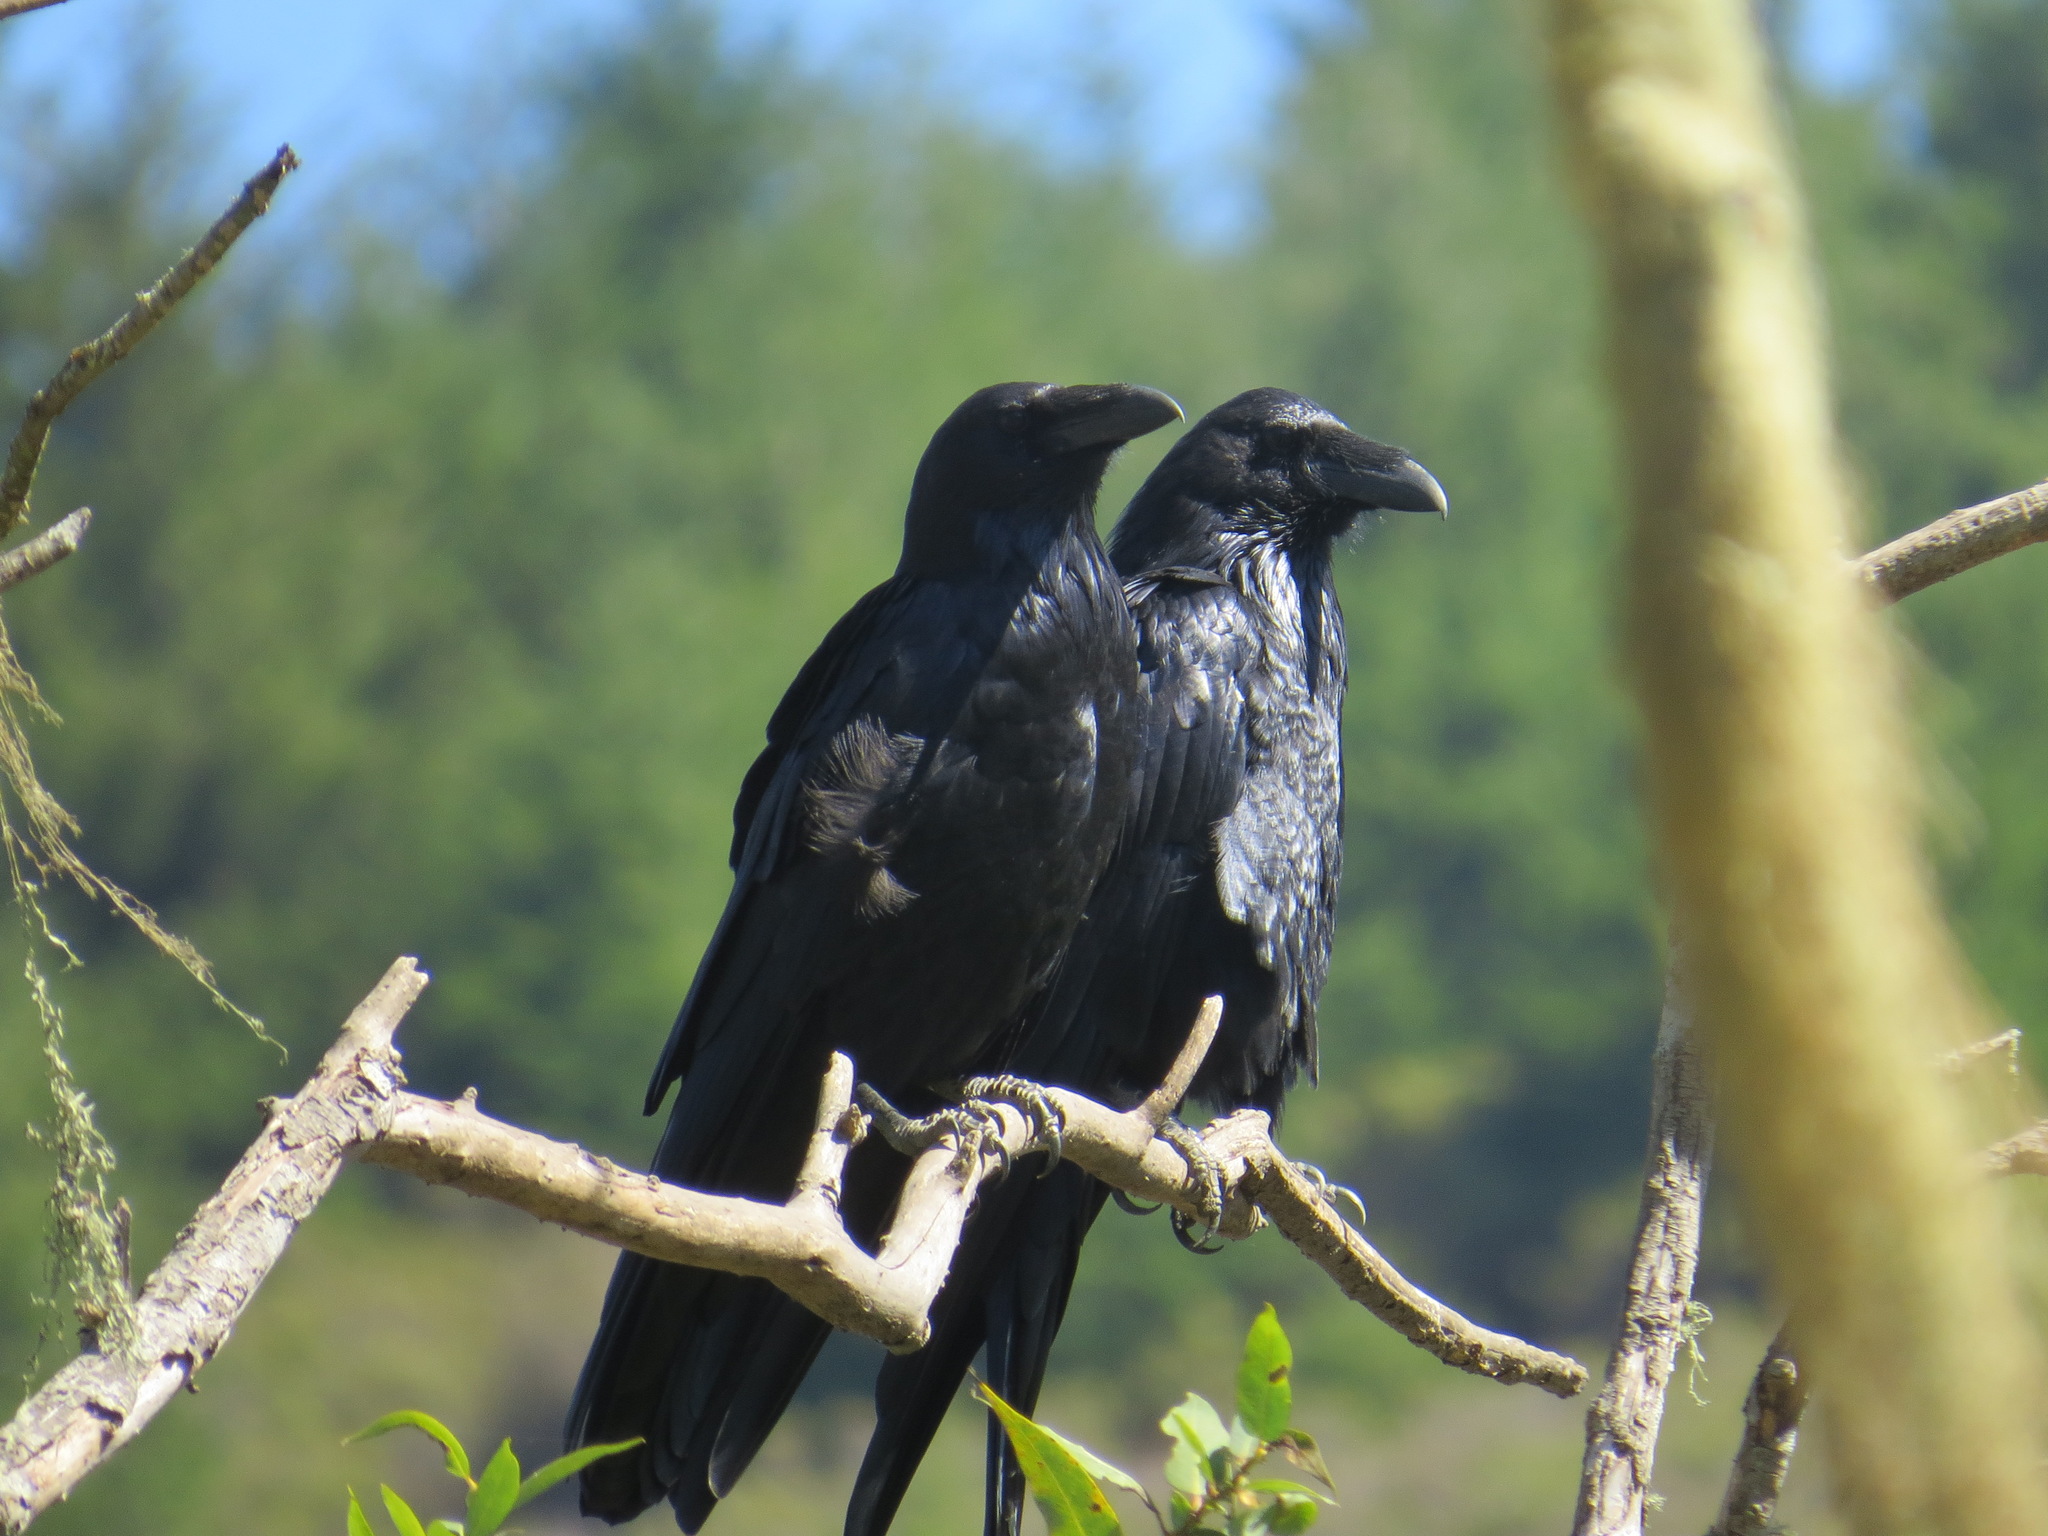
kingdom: Animalia
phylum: Chordata
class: Aves
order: Passeriformes
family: Corvidae
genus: Corvus
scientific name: Corvus corax
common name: Common raven
